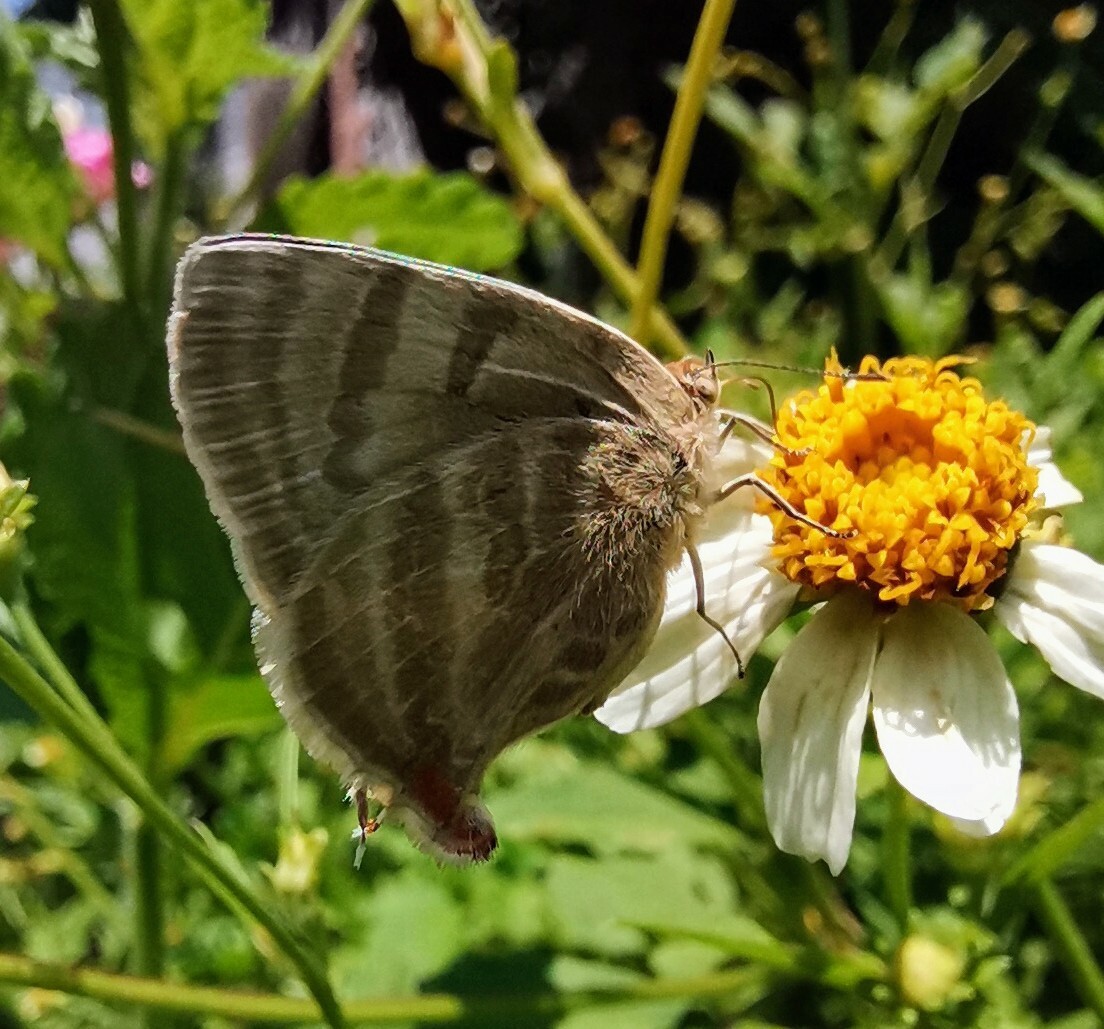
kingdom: Animalia
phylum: Arthropoda
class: Insecta
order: Lepidoptera
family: Lycaenidae
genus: Dolymorpha
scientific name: Dolymorpha jada
